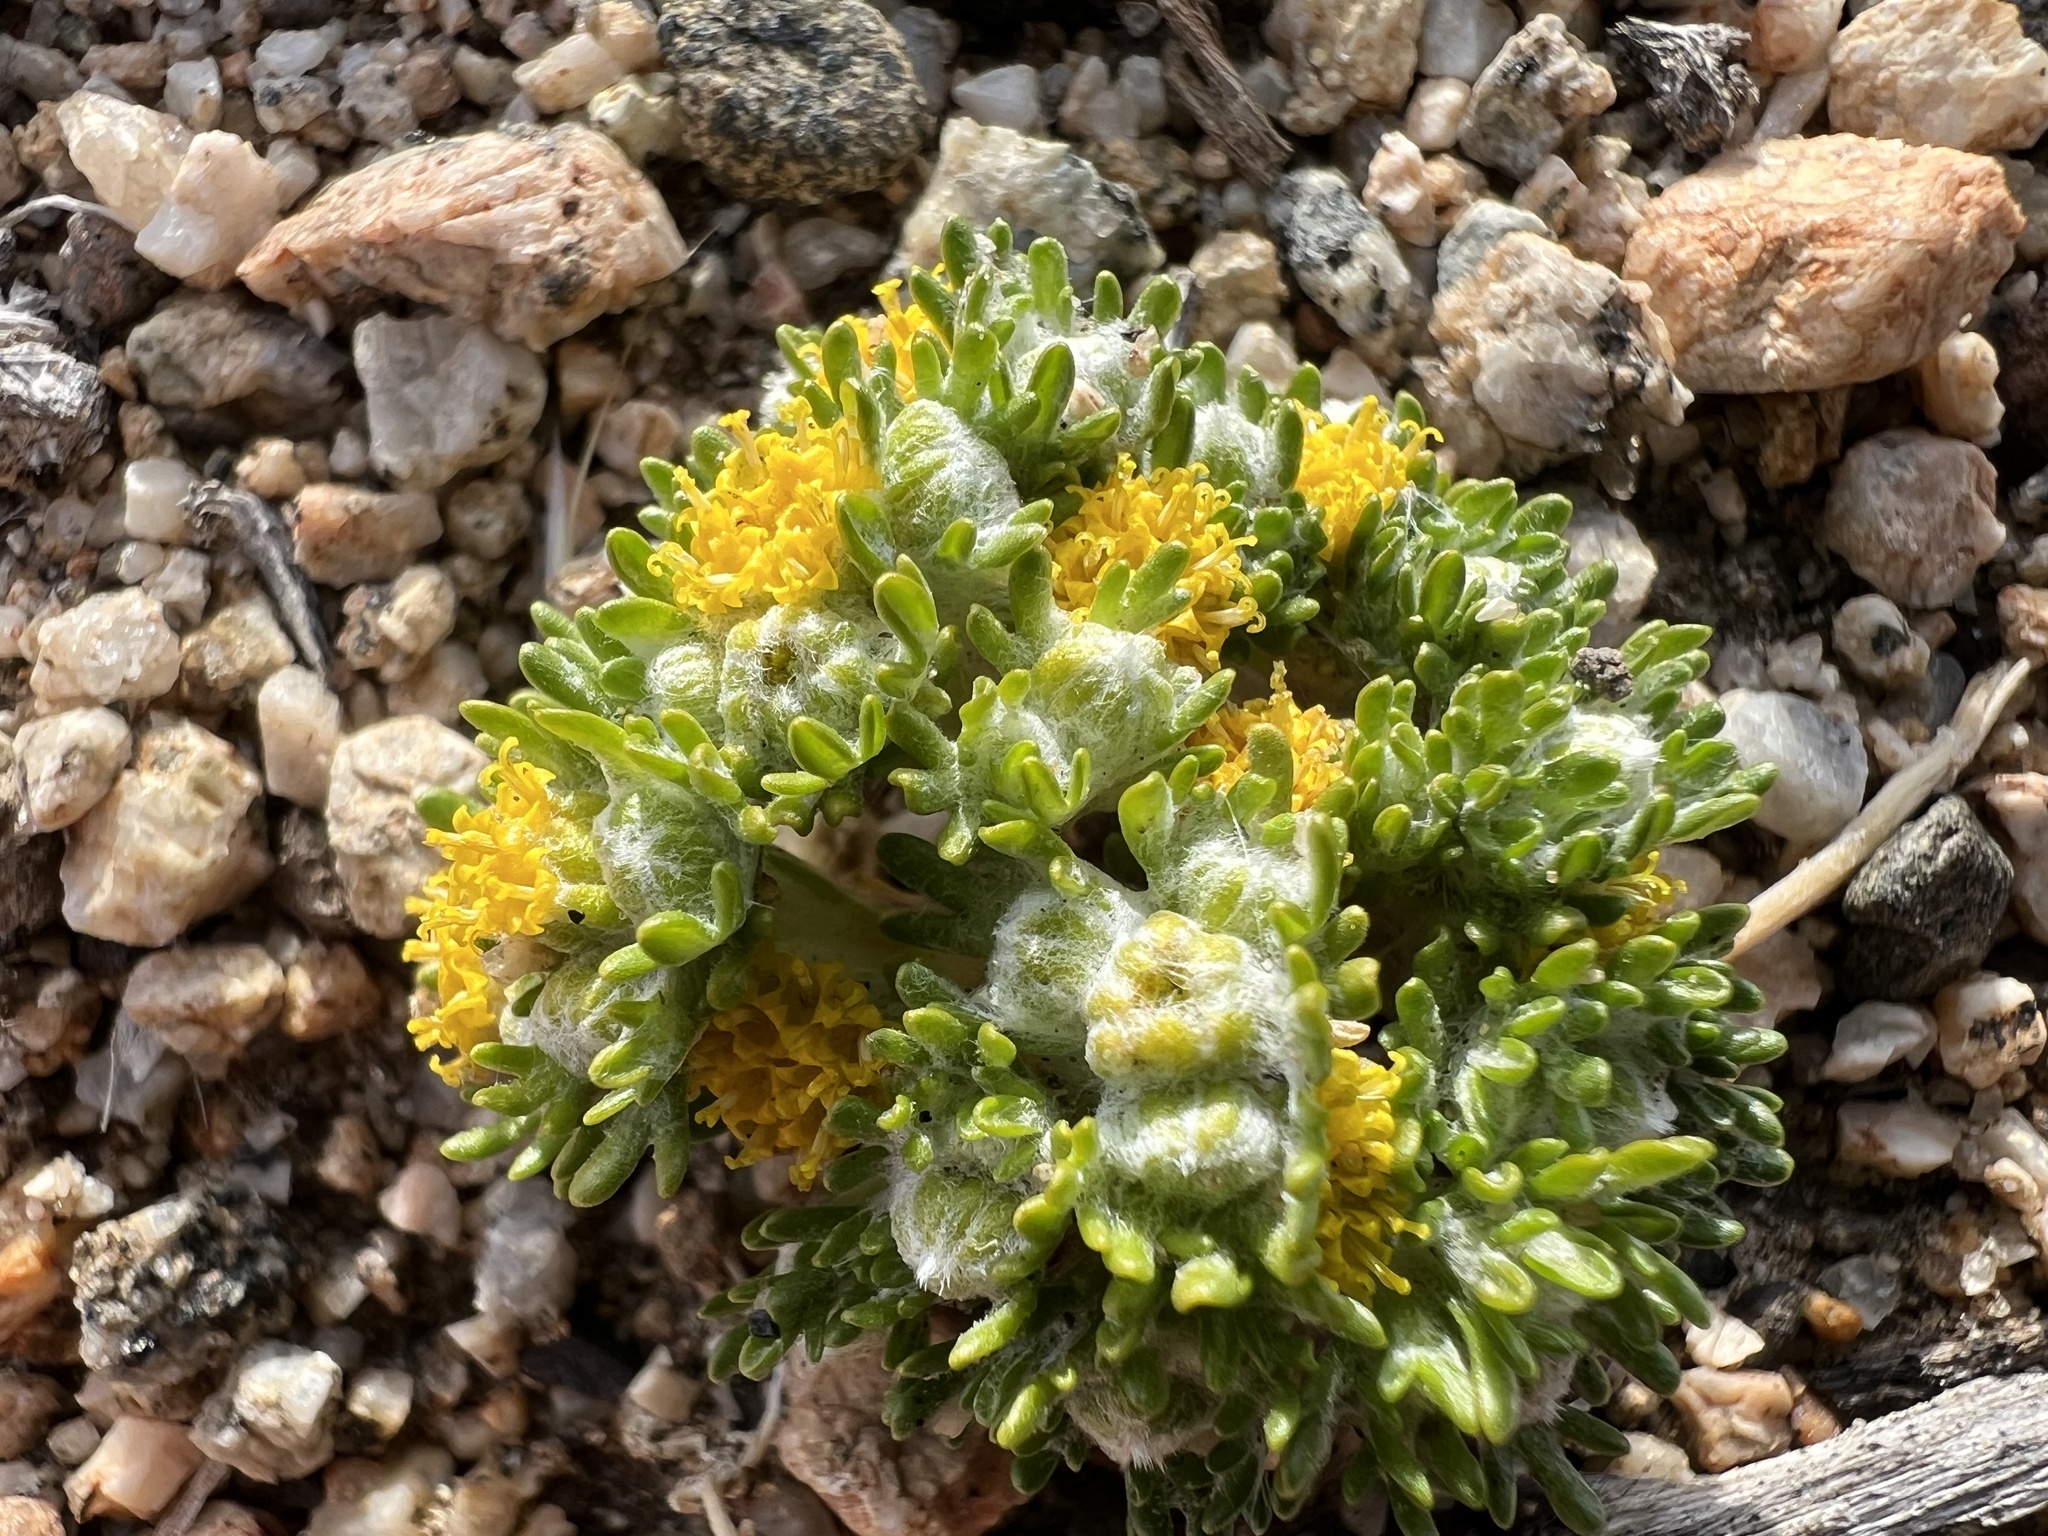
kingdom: Plantae
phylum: Tracheophyta
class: Magnoliopsida
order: Asterales
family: Asteraceae
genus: Eriophyllum
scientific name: Eriophyllum pringlei
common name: Pringle's woolly-sunflower
